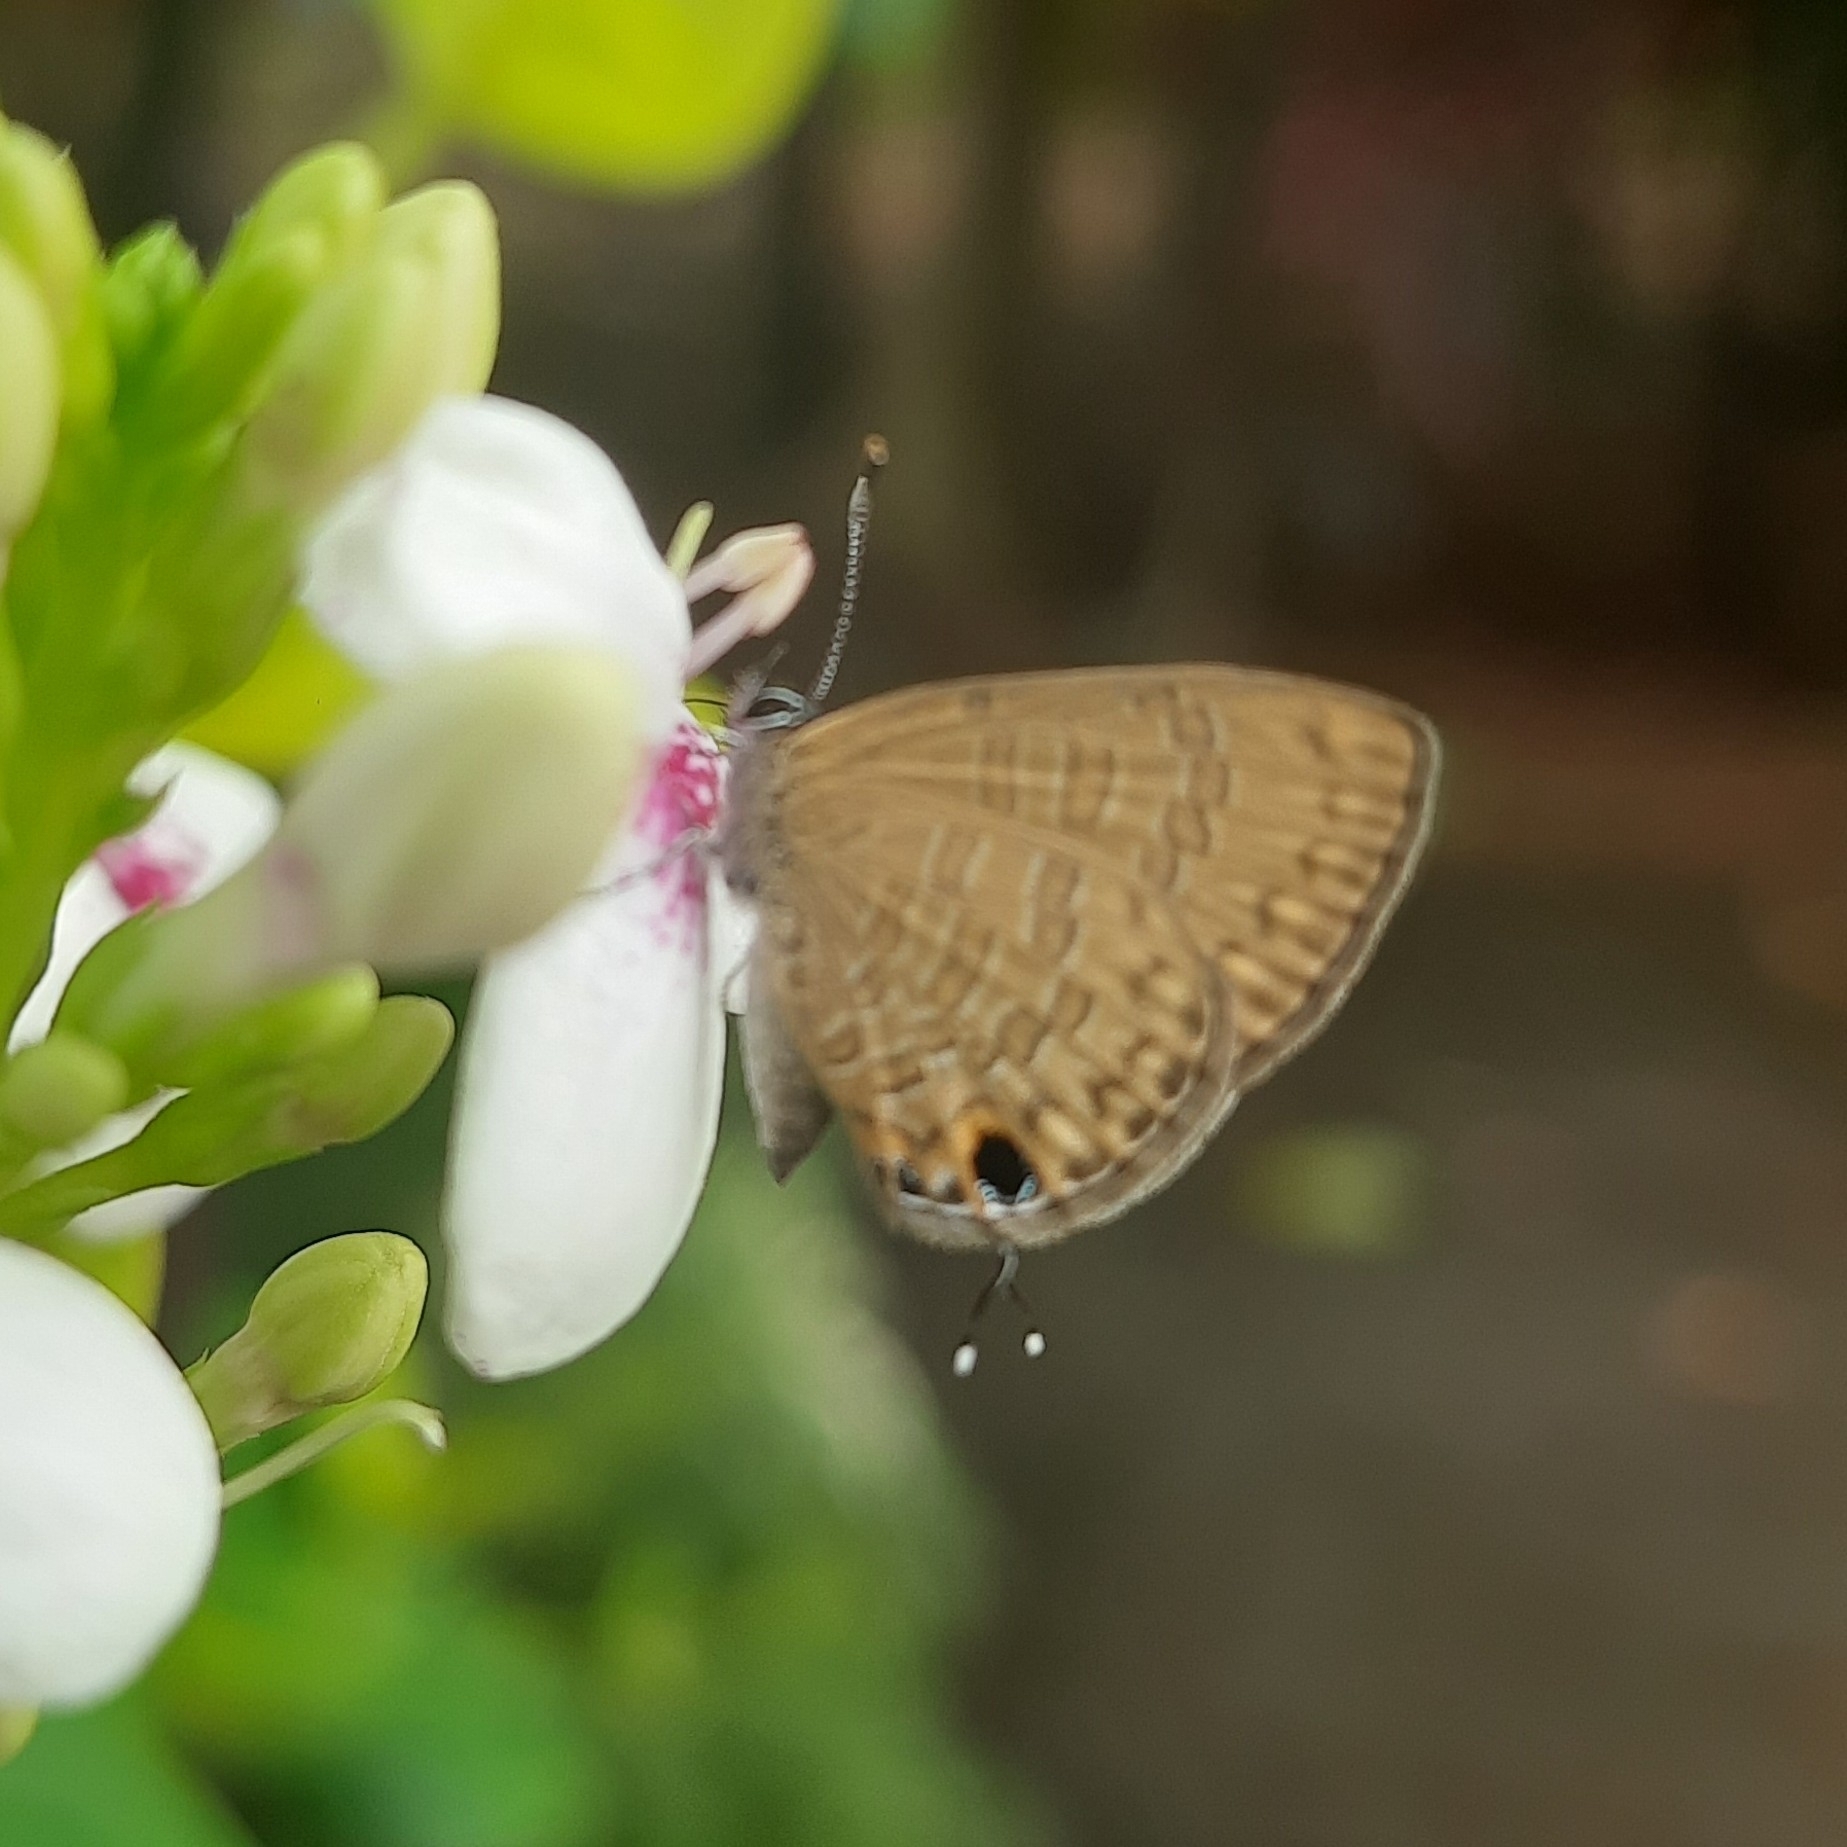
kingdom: Animalia
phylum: Arthropoda
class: Insecta
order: Lepidoptera
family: Lycaenidae
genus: Prosotas
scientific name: Prosotas nora
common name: Common line blue
